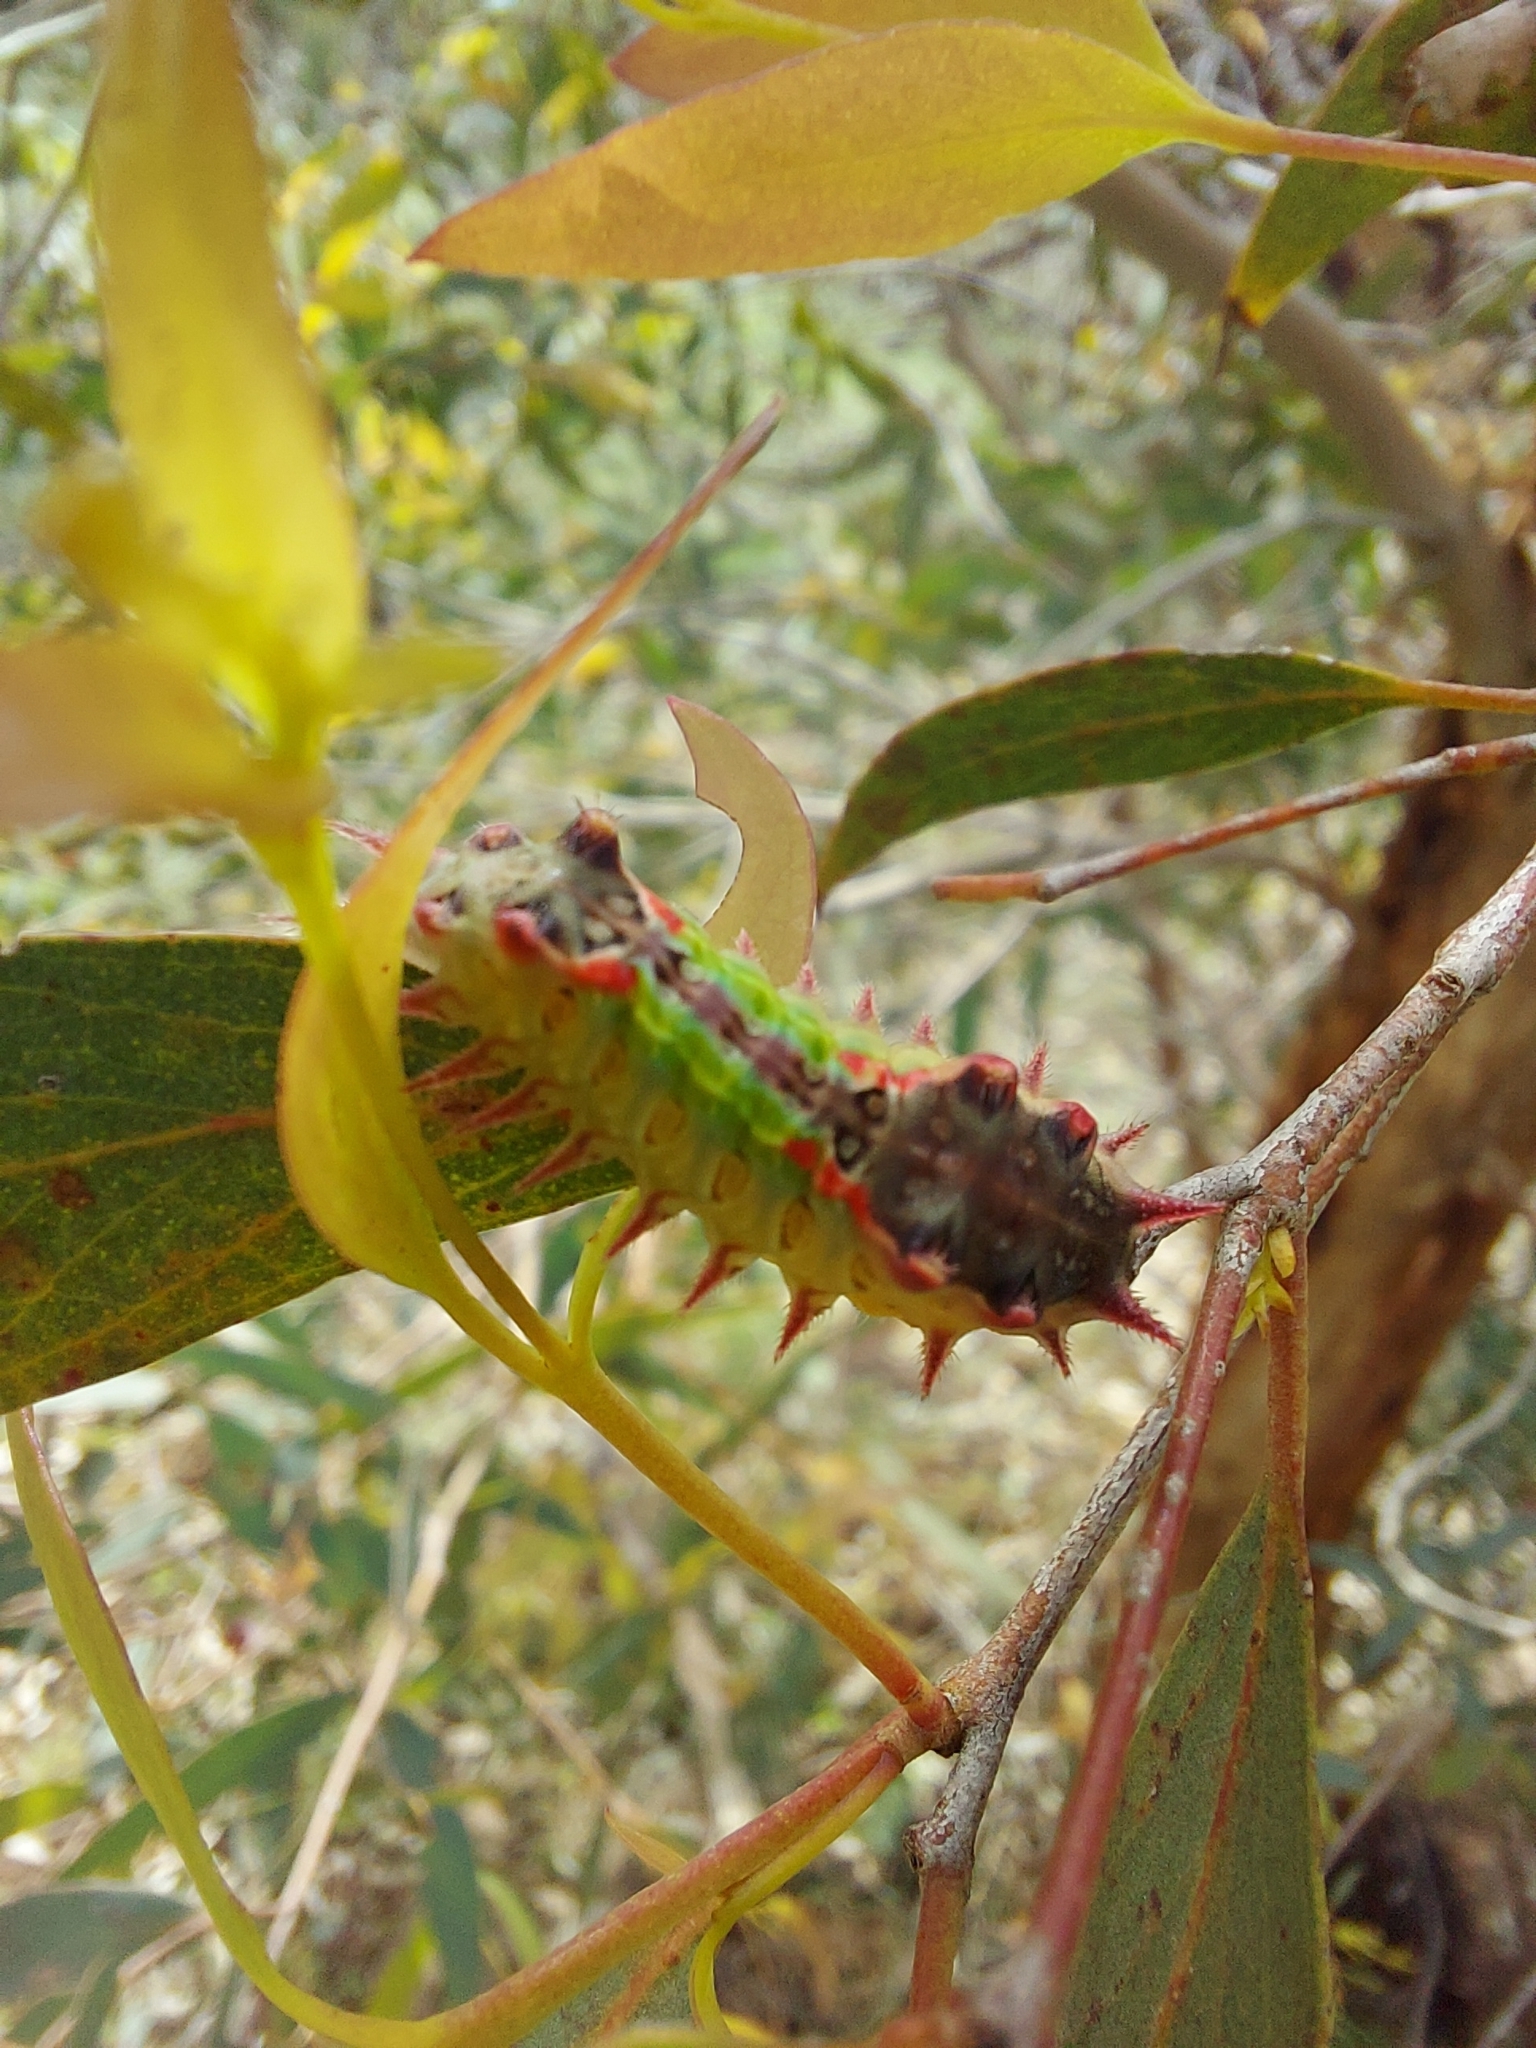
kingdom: Animalia
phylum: Arthropoda
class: Insecta
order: Lepidoptera
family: Limacodidae
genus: Doratifera
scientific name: Doratifera oxleyi
